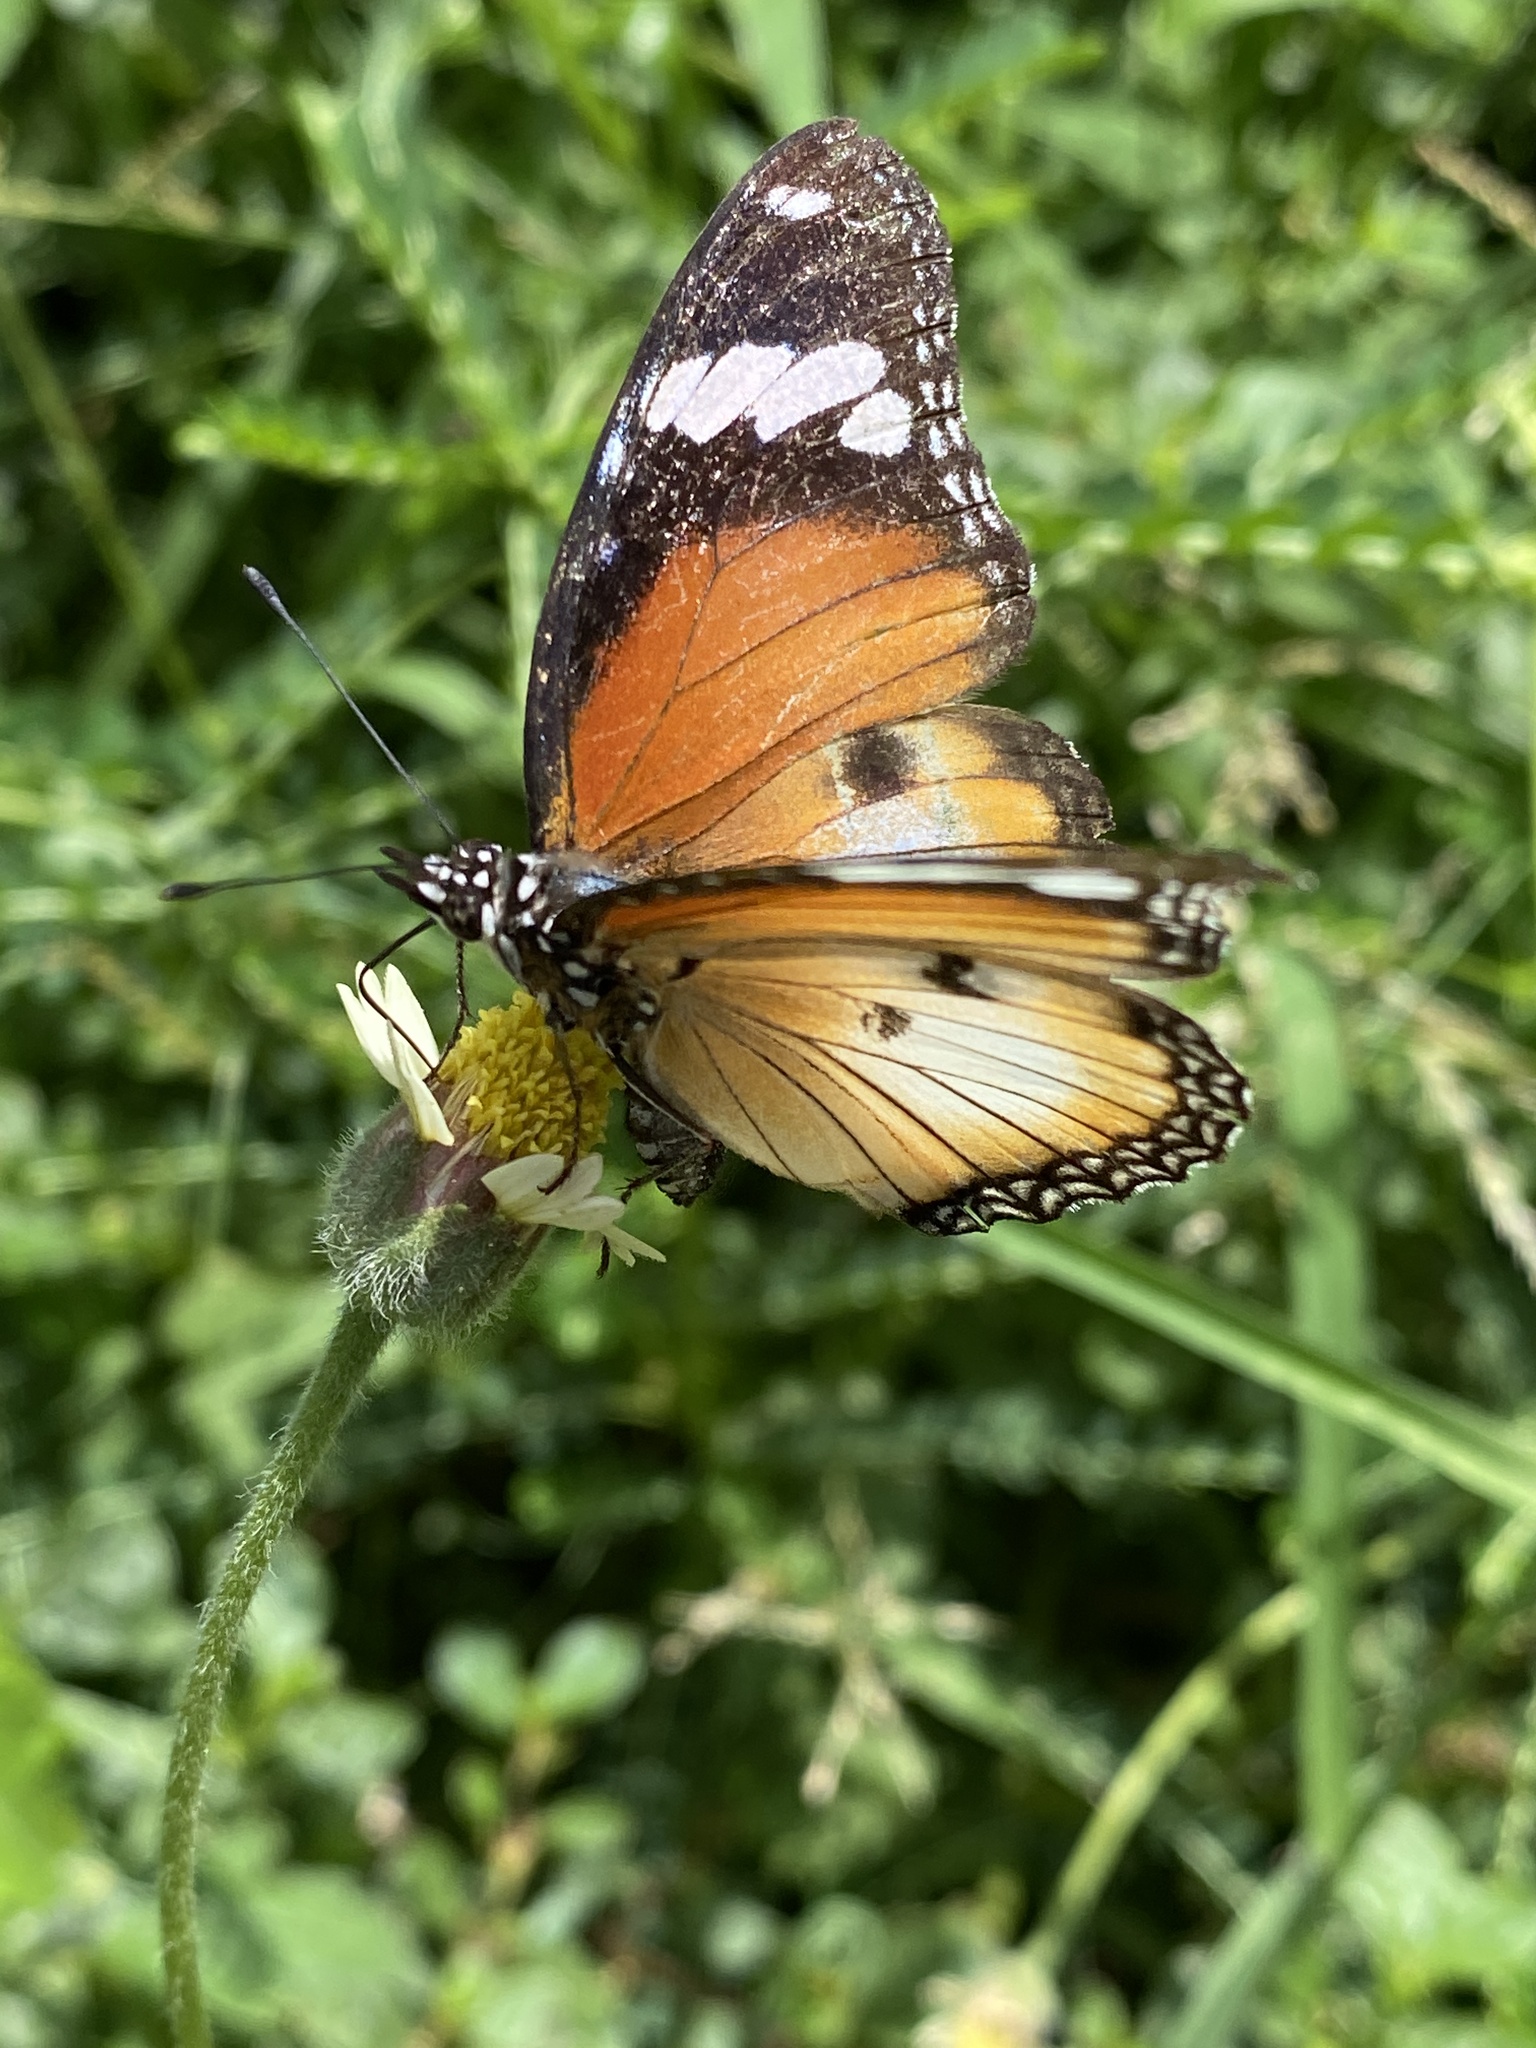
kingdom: Animalia
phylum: Arthropoda
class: Insecta
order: Lepidoptera
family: Nymphalidae
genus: Hypolimnas
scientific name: Hypolimnas misippus
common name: False plain tiger
